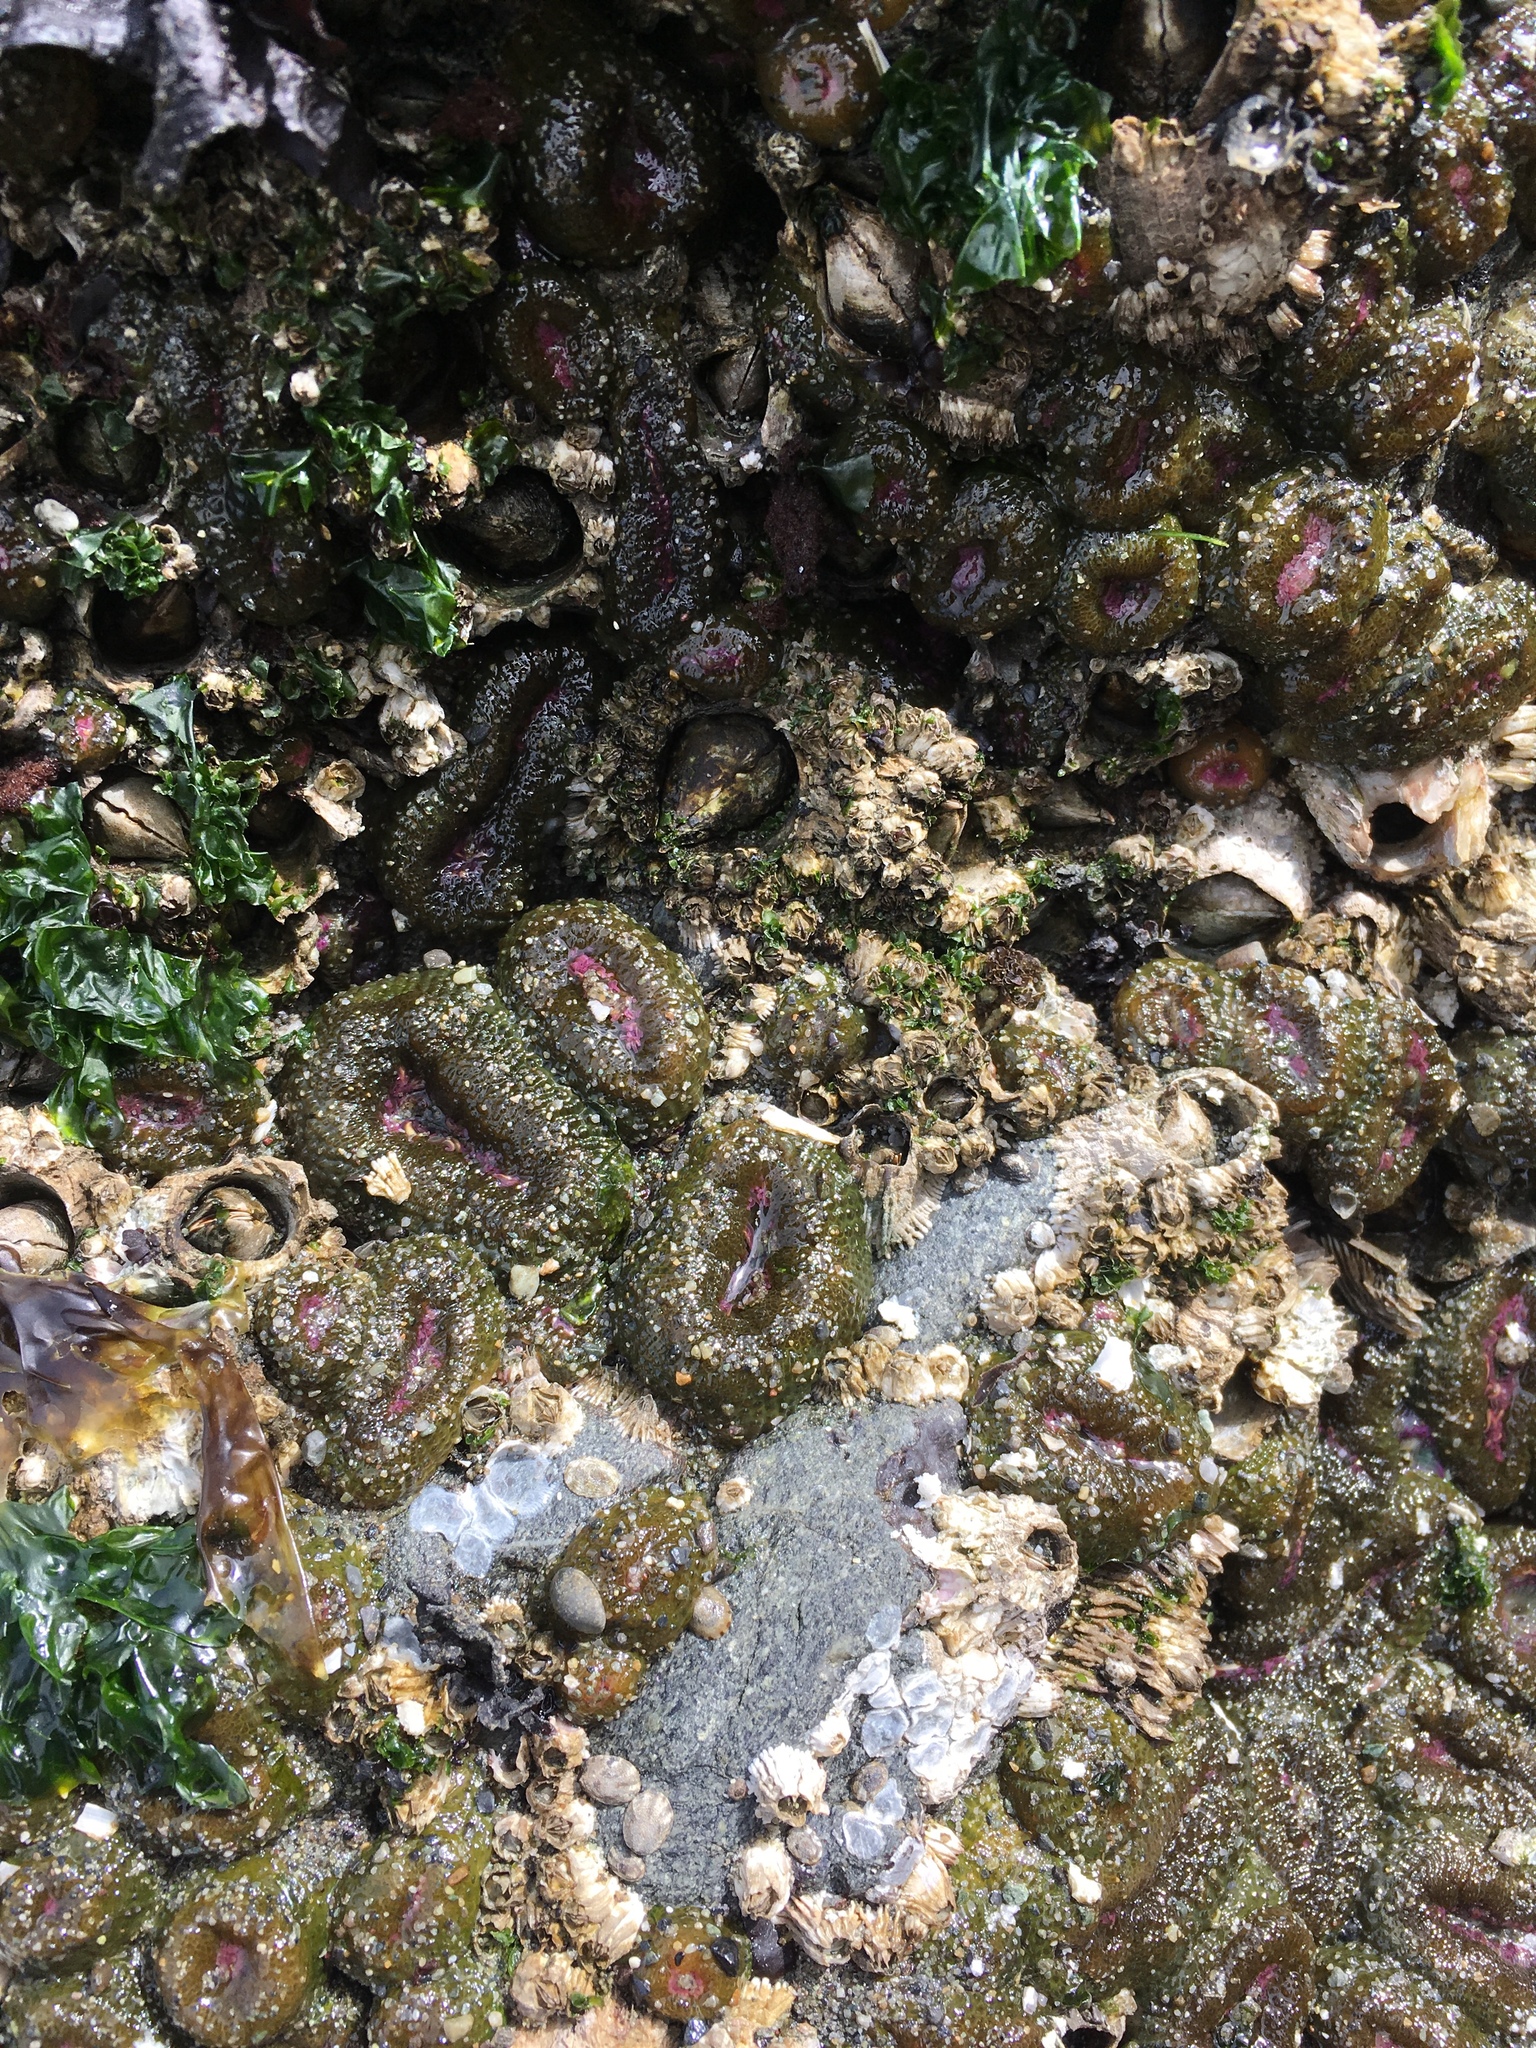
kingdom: Animalia
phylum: Arthropoda
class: Maxillopoda
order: Sessilia
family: Archaeobalanidae
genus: Semibalanus
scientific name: Semibalanus cariosus
